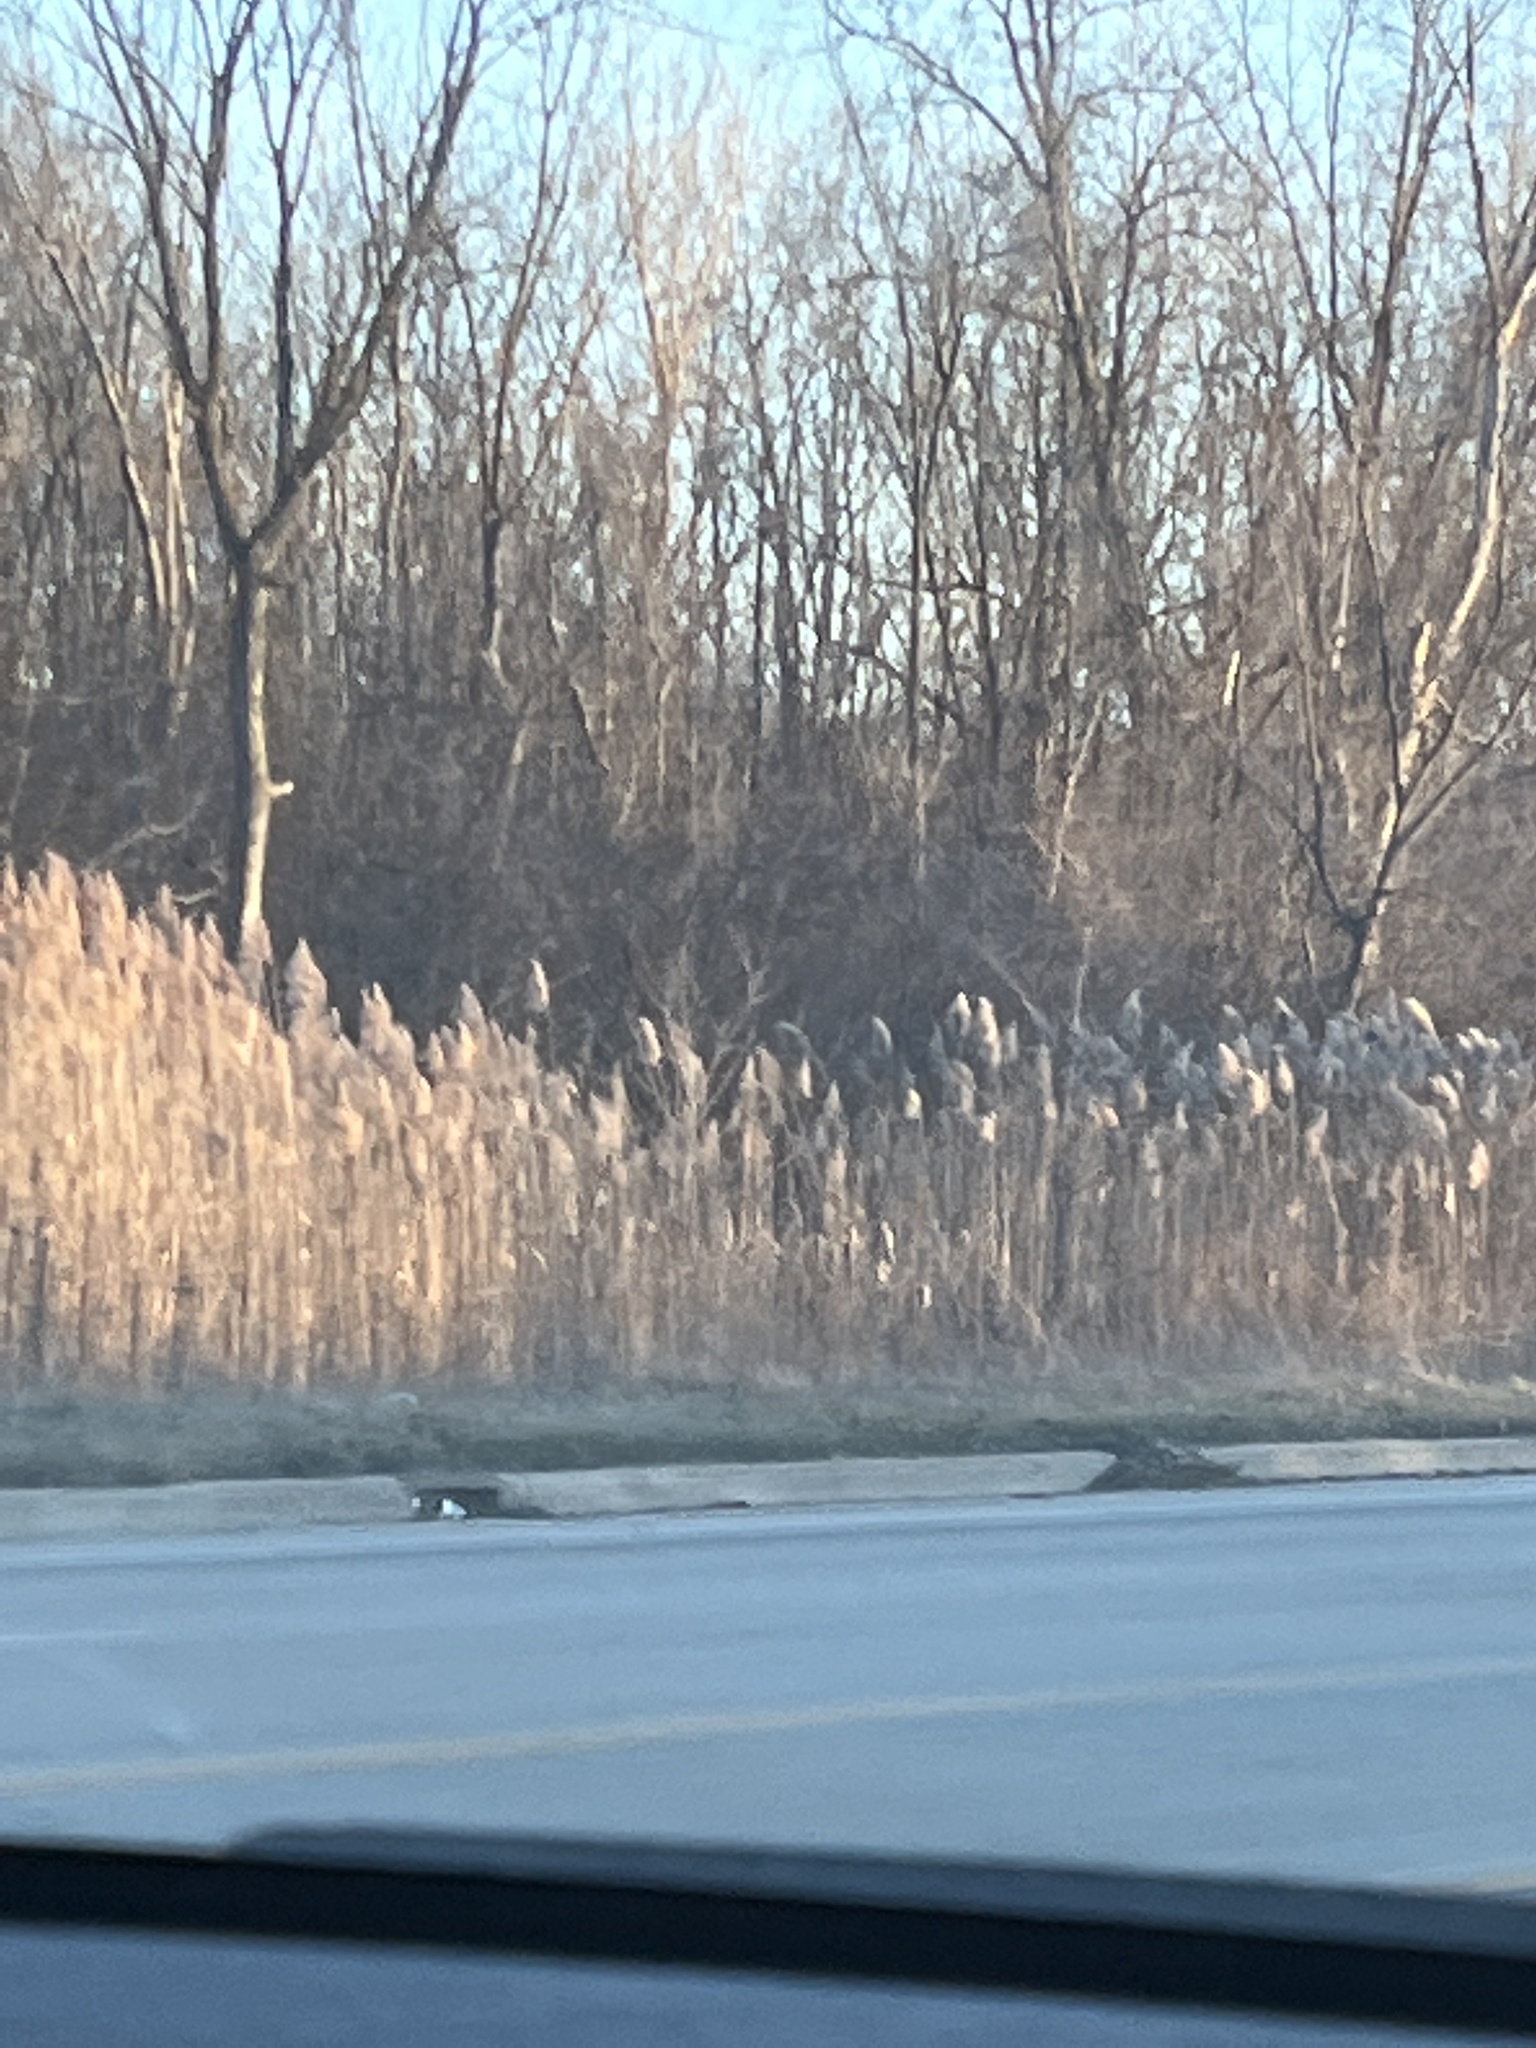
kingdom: Plantae
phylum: Tracheophyta
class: Liliopsida
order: Poales
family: Poaceae
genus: Phragmites
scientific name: Phragmites australis
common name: Common reed
